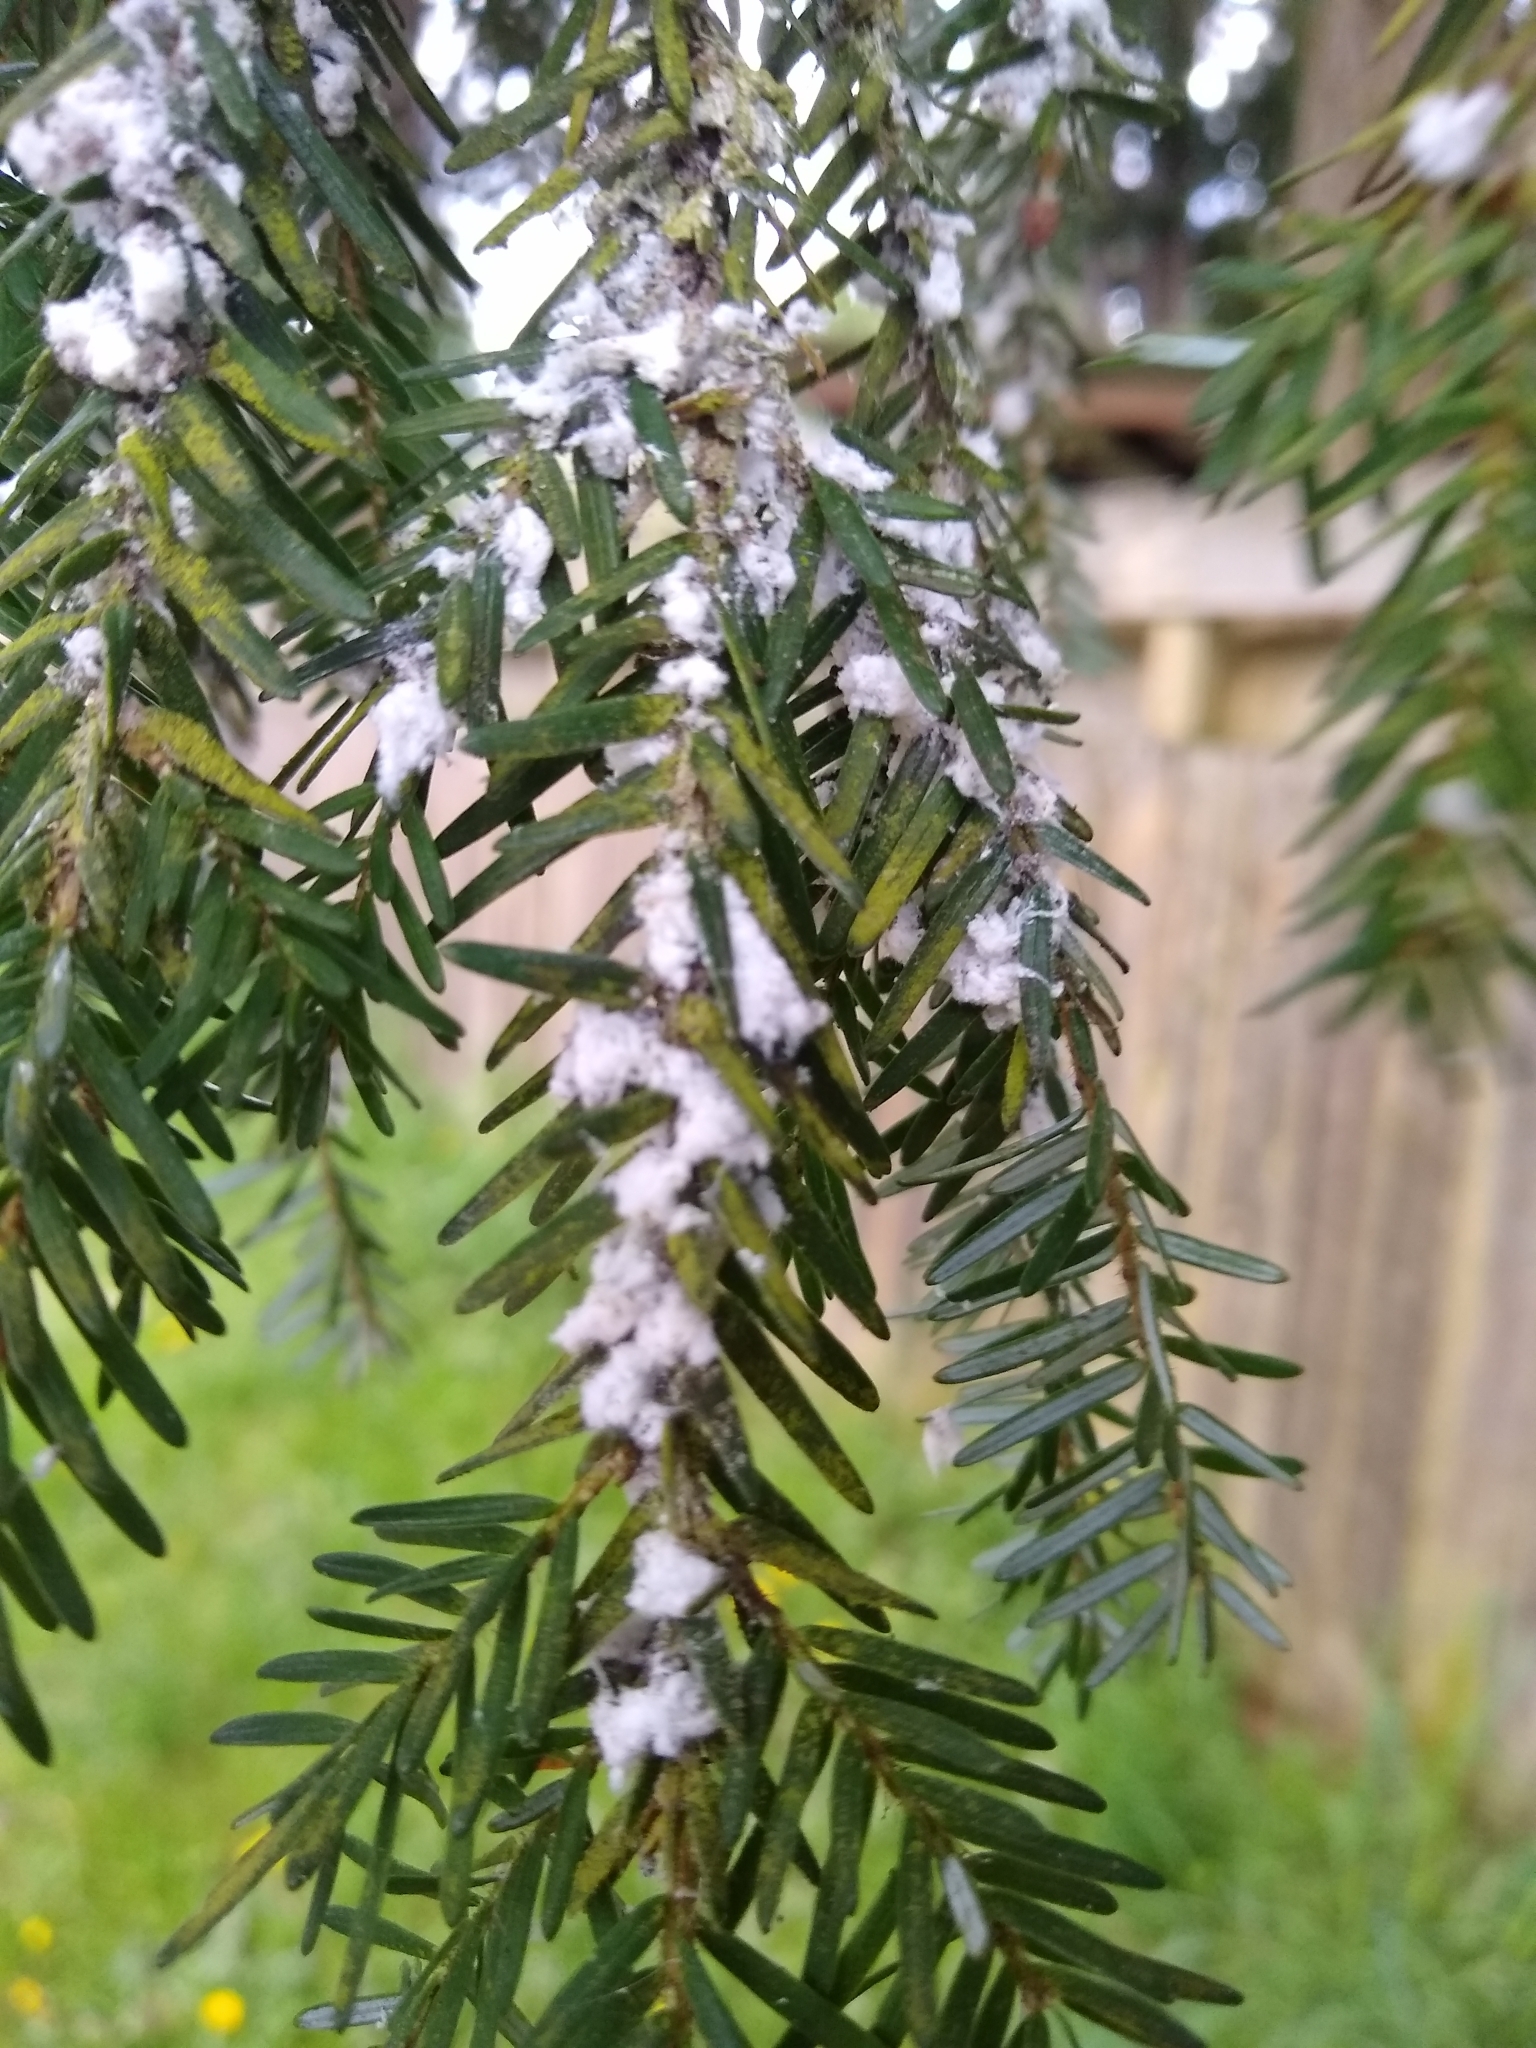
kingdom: Animalia
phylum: Arthropoda
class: Insecta
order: Hemiptera
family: Adelgidae
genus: Adelges
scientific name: Adelges tsugae
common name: Hemlock woolly adelgid
